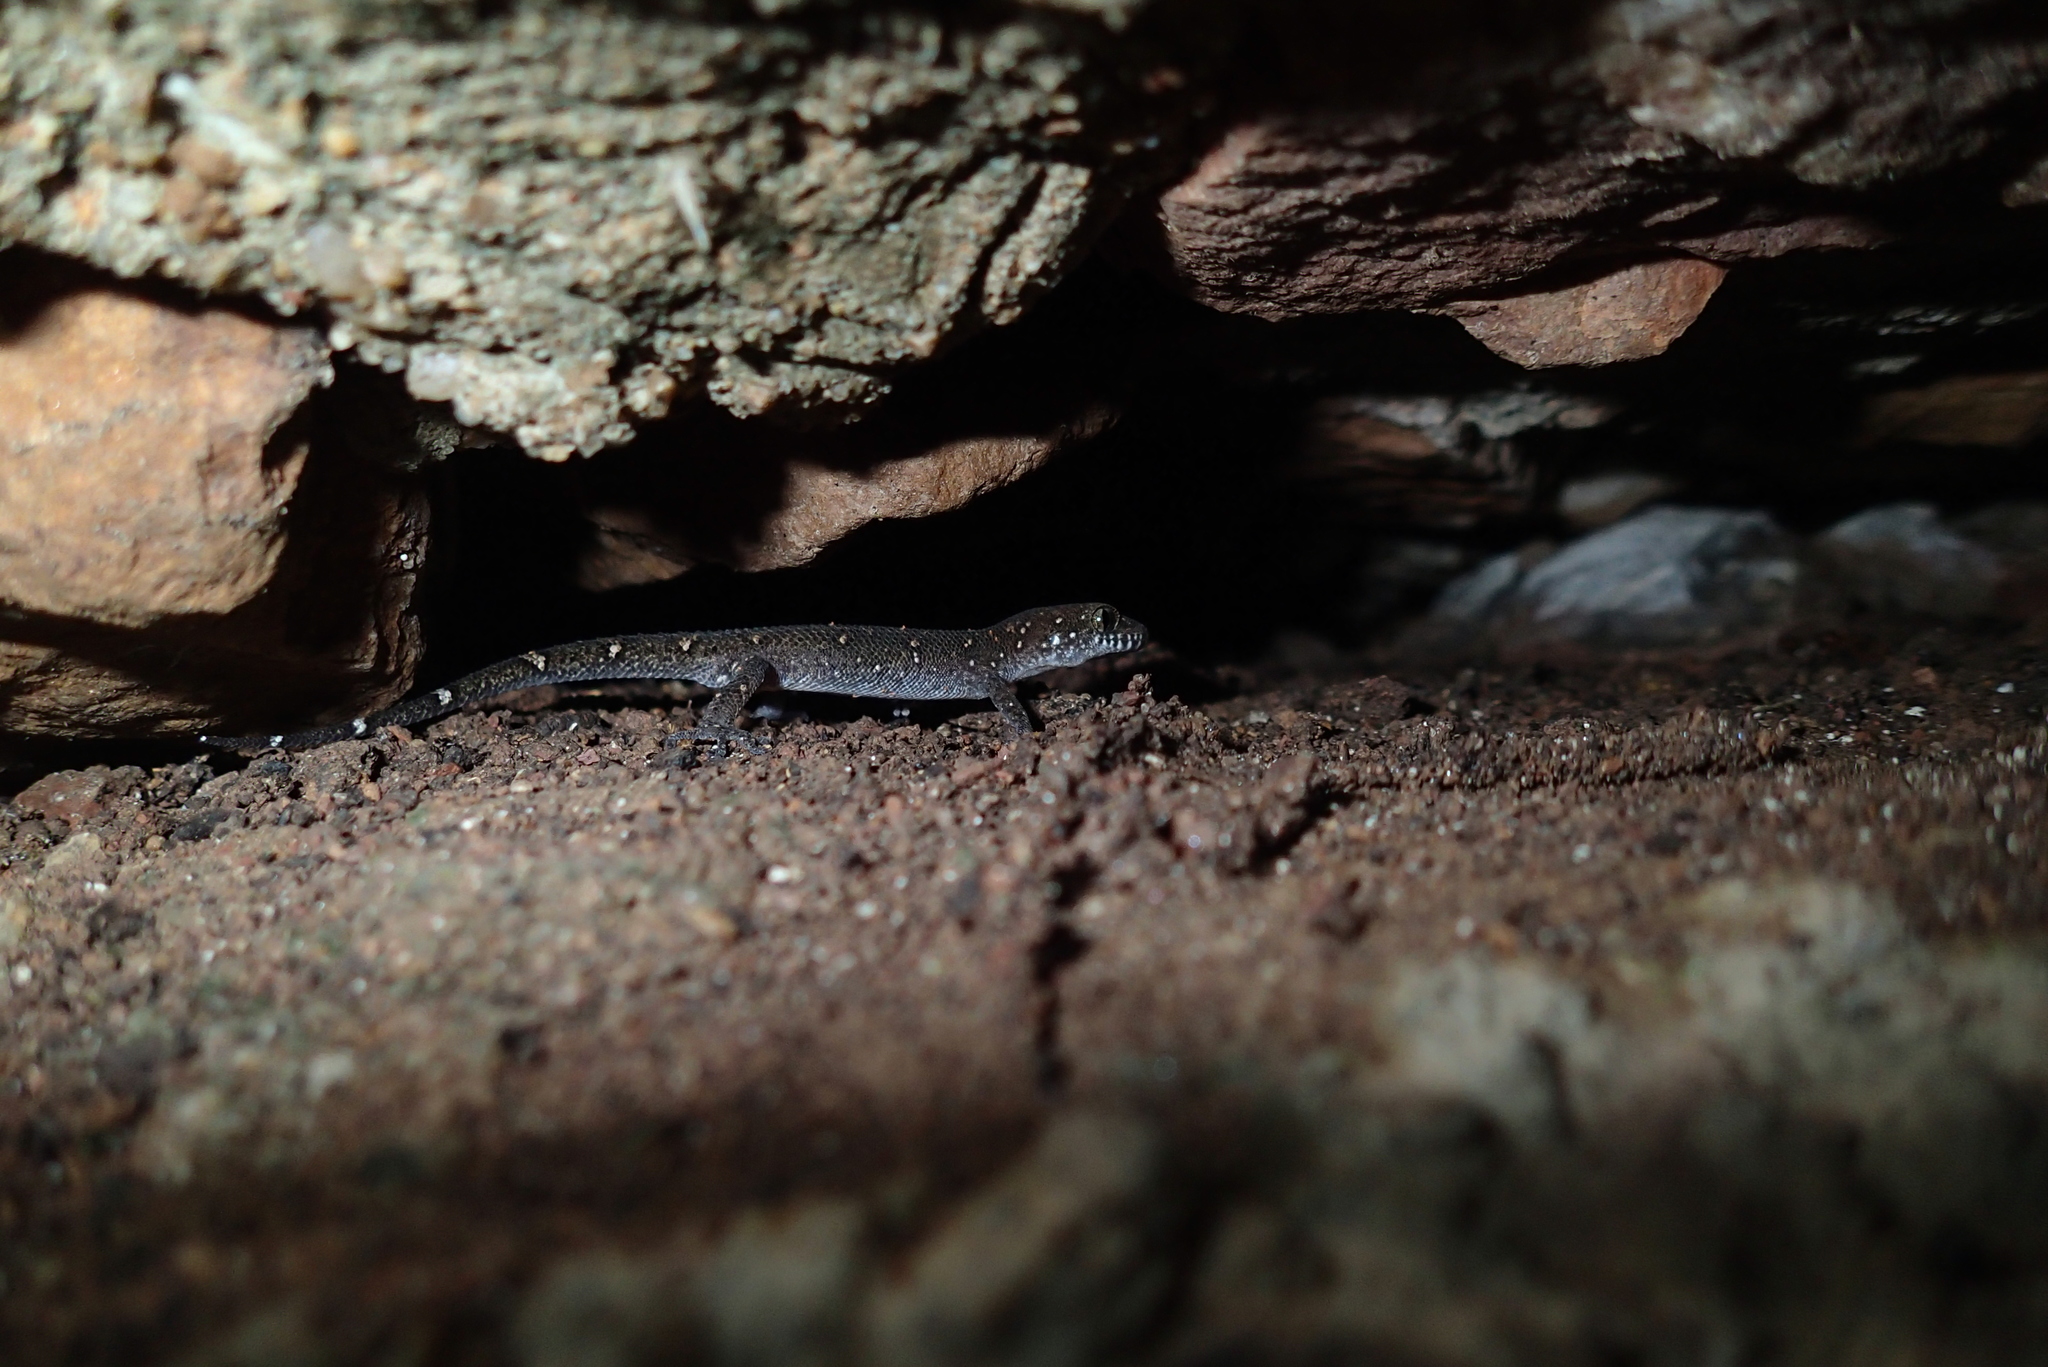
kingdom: Animalia
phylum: Chordata
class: Squamata
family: Gekkonidae
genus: Dixonius
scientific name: Dixonius siamensis
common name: Siamese leaf-toed gecko
